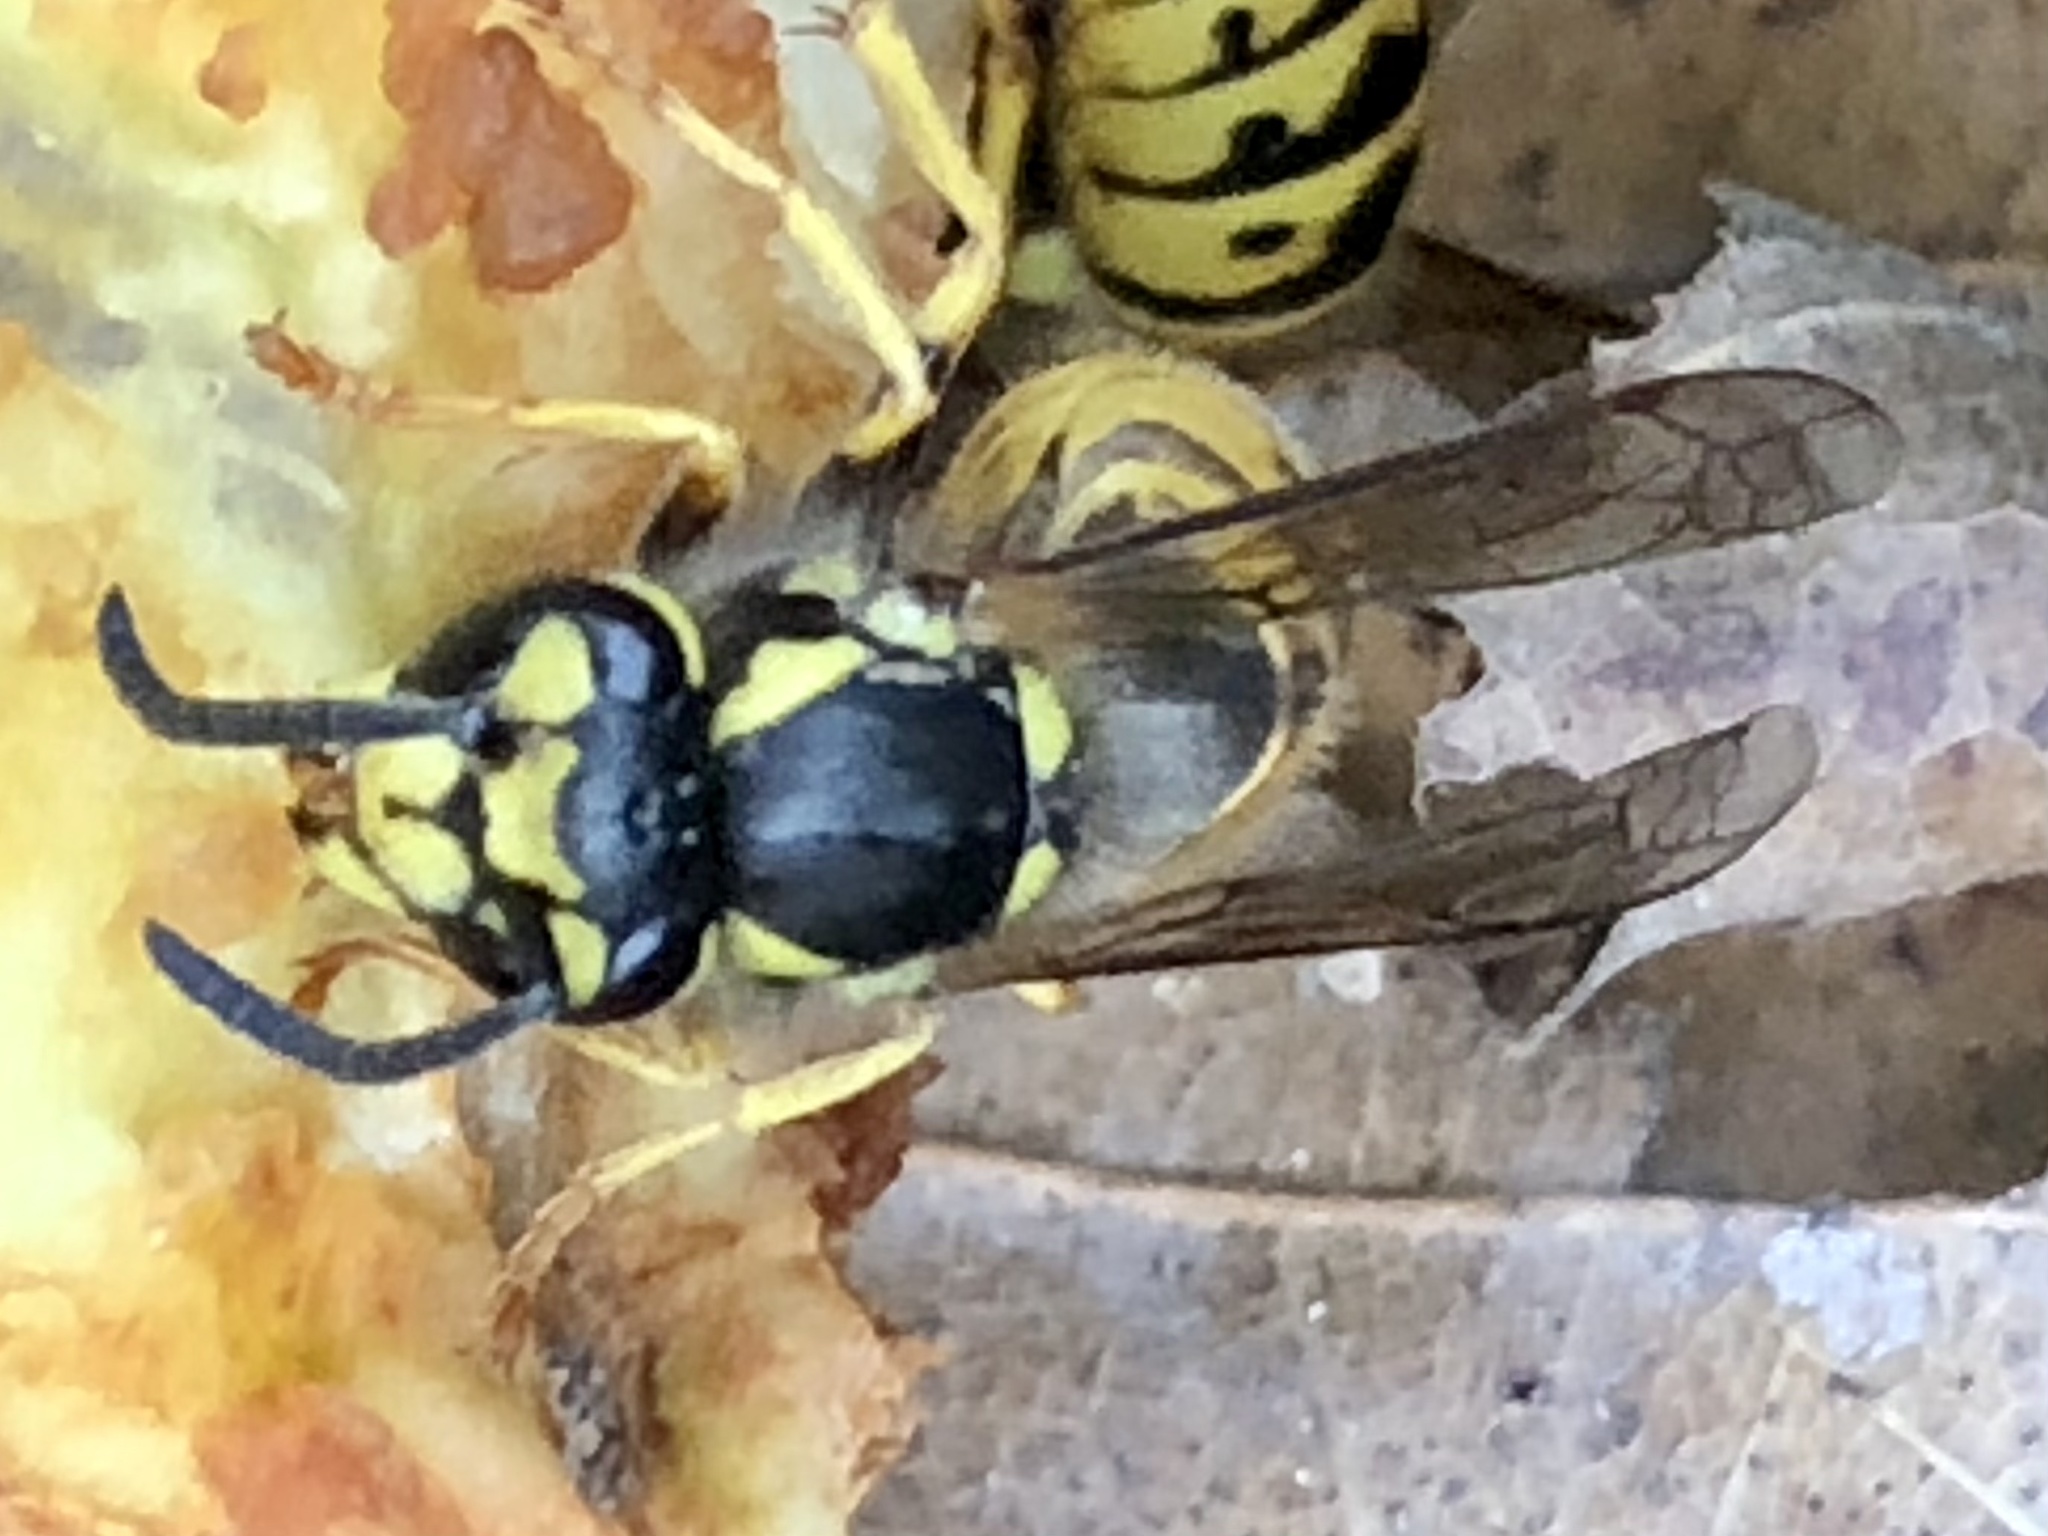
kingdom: Animalia
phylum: Arthropoda
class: Insecta
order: Hymenoptera
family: Vespidae
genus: Vespula
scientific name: Vespula germanica
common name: German wasp
